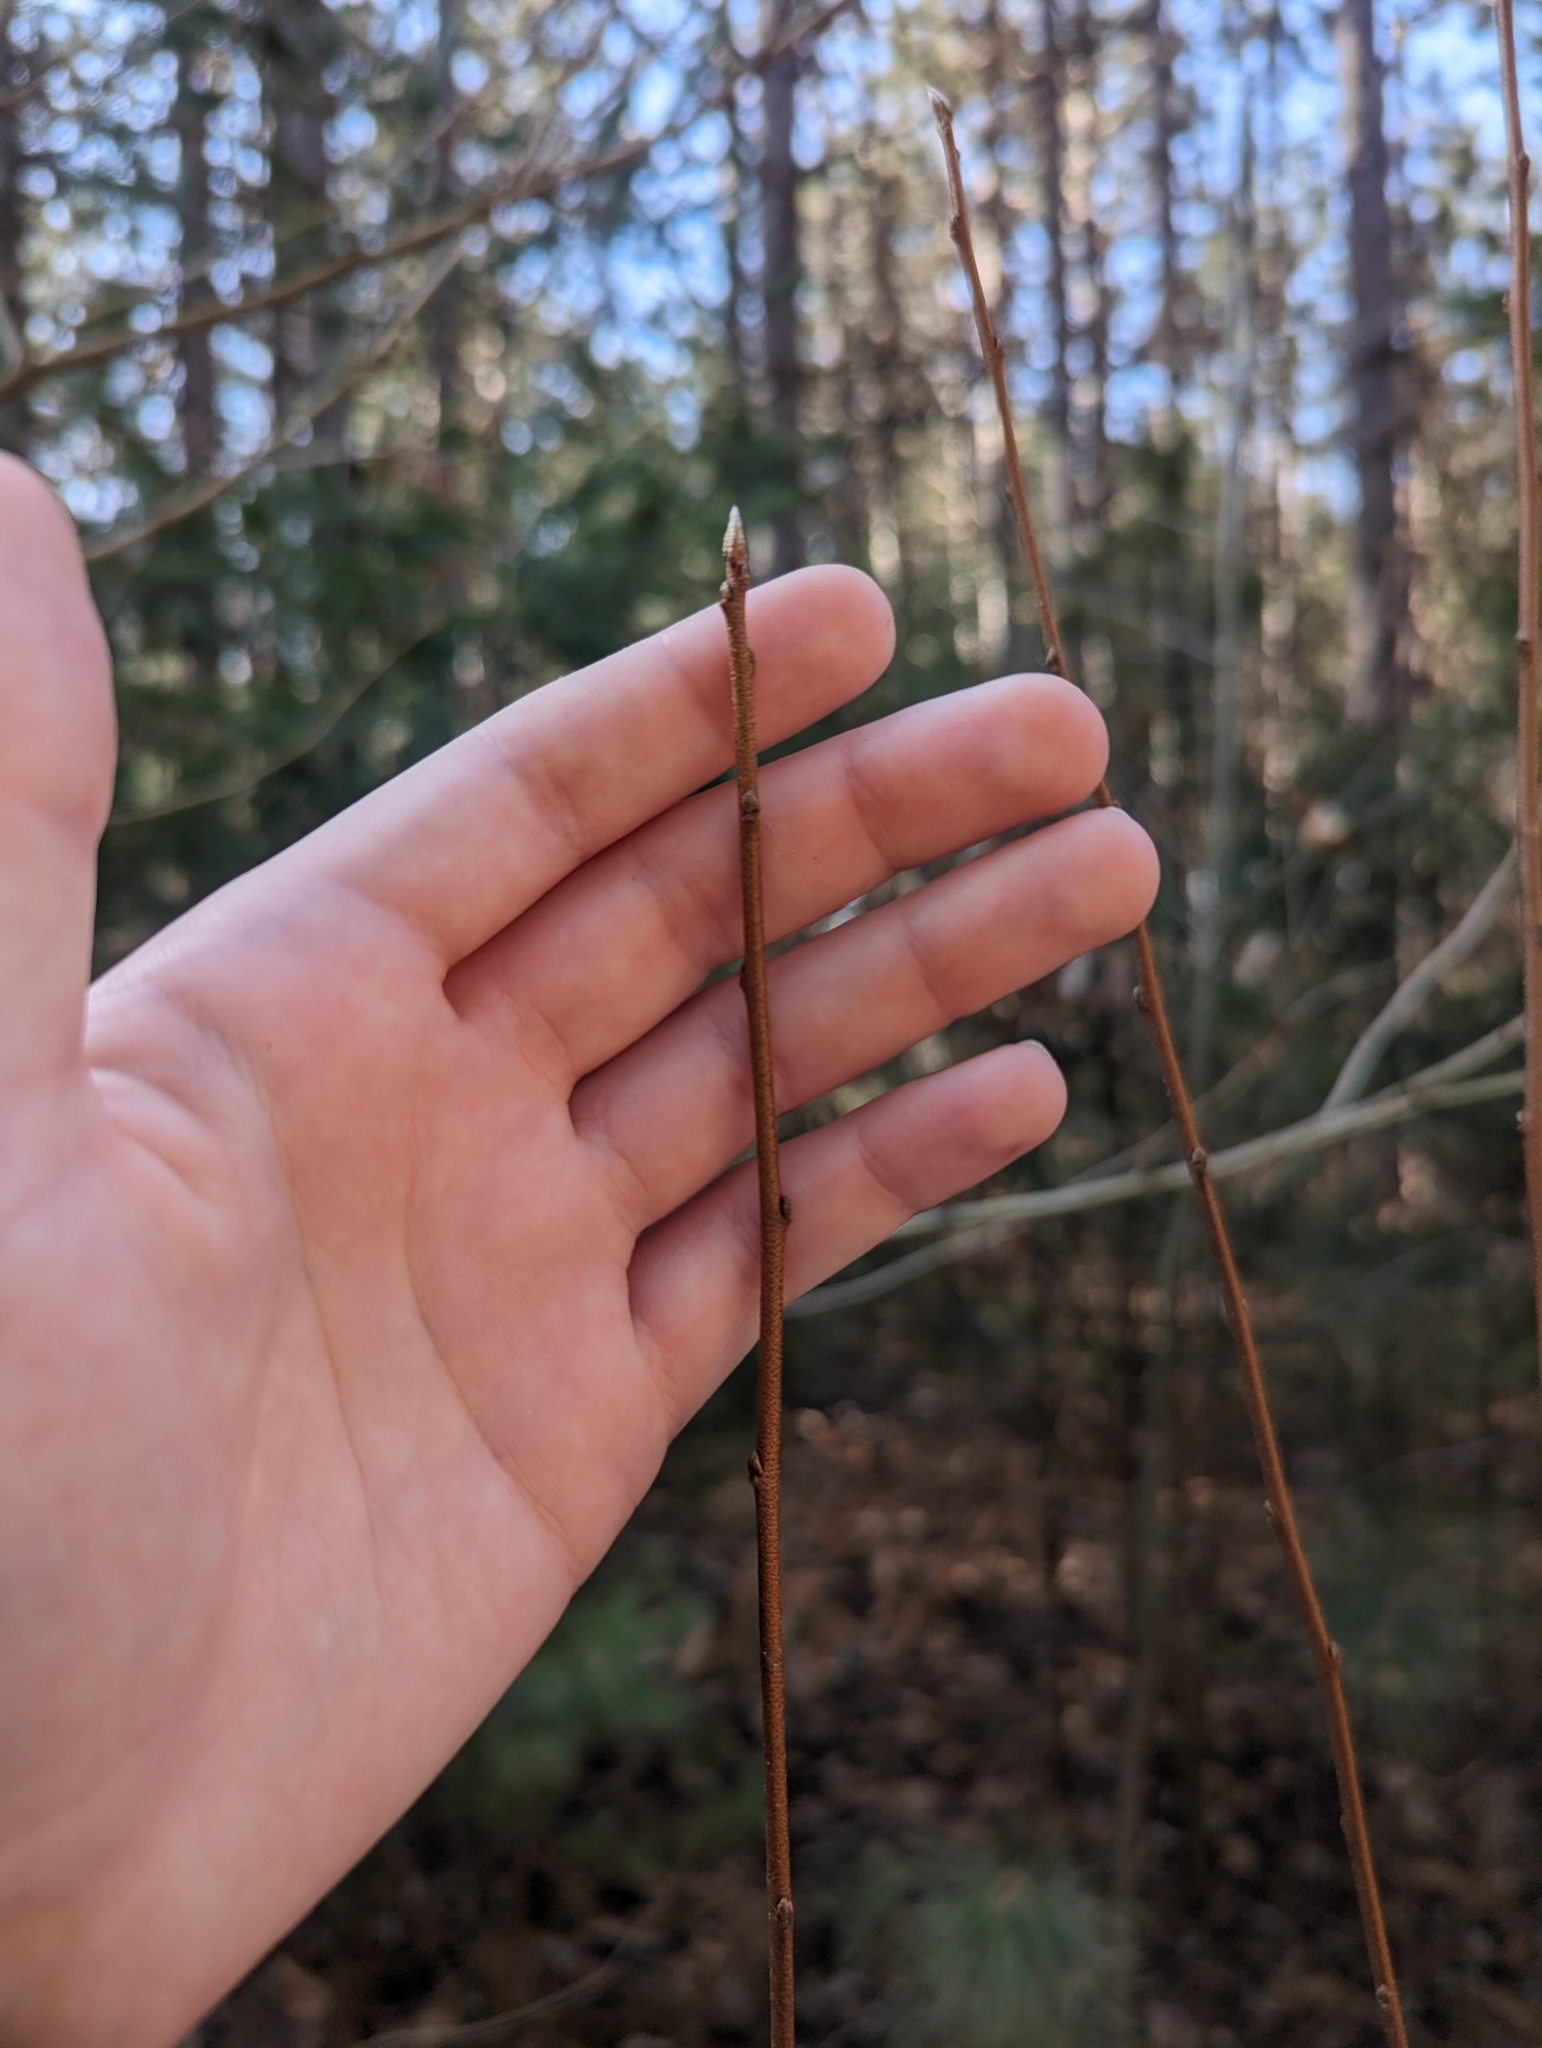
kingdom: Plantae
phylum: Tracheophyta
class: Magnoliopsida
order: Rosales
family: Elaeagnaceae
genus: Elaeagnus
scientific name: Elaeagnus umbellata
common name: Autumn olive
